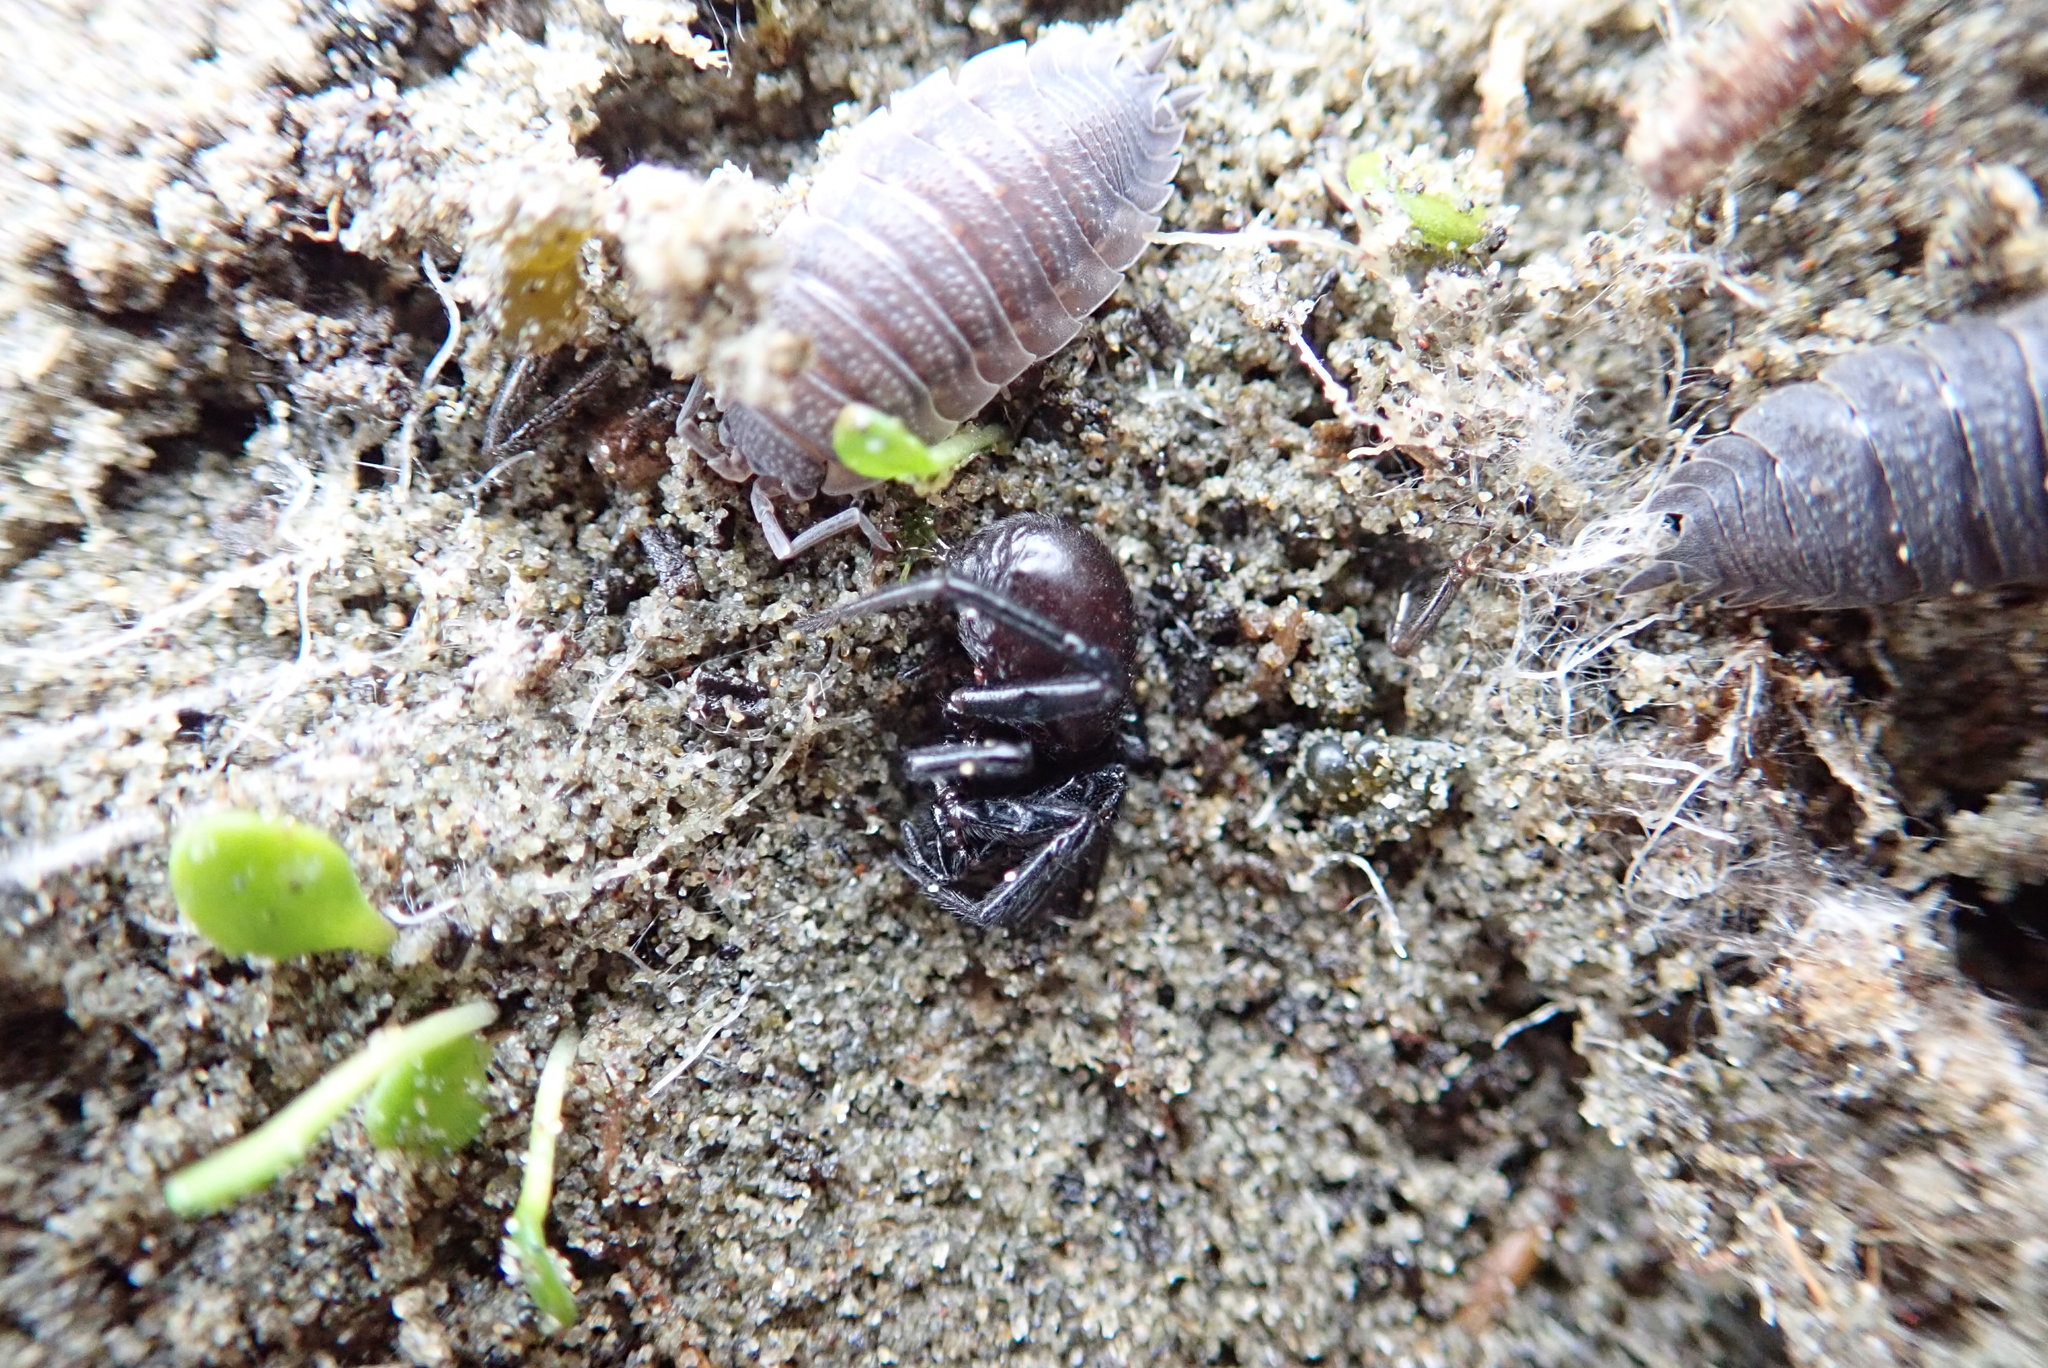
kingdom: Animalia
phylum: Arthropoda
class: Malacostraca
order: Isopoda
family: Porcellionidae
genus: Porcellio
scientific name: Porcellio scaber
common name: Common rough woodlouse
